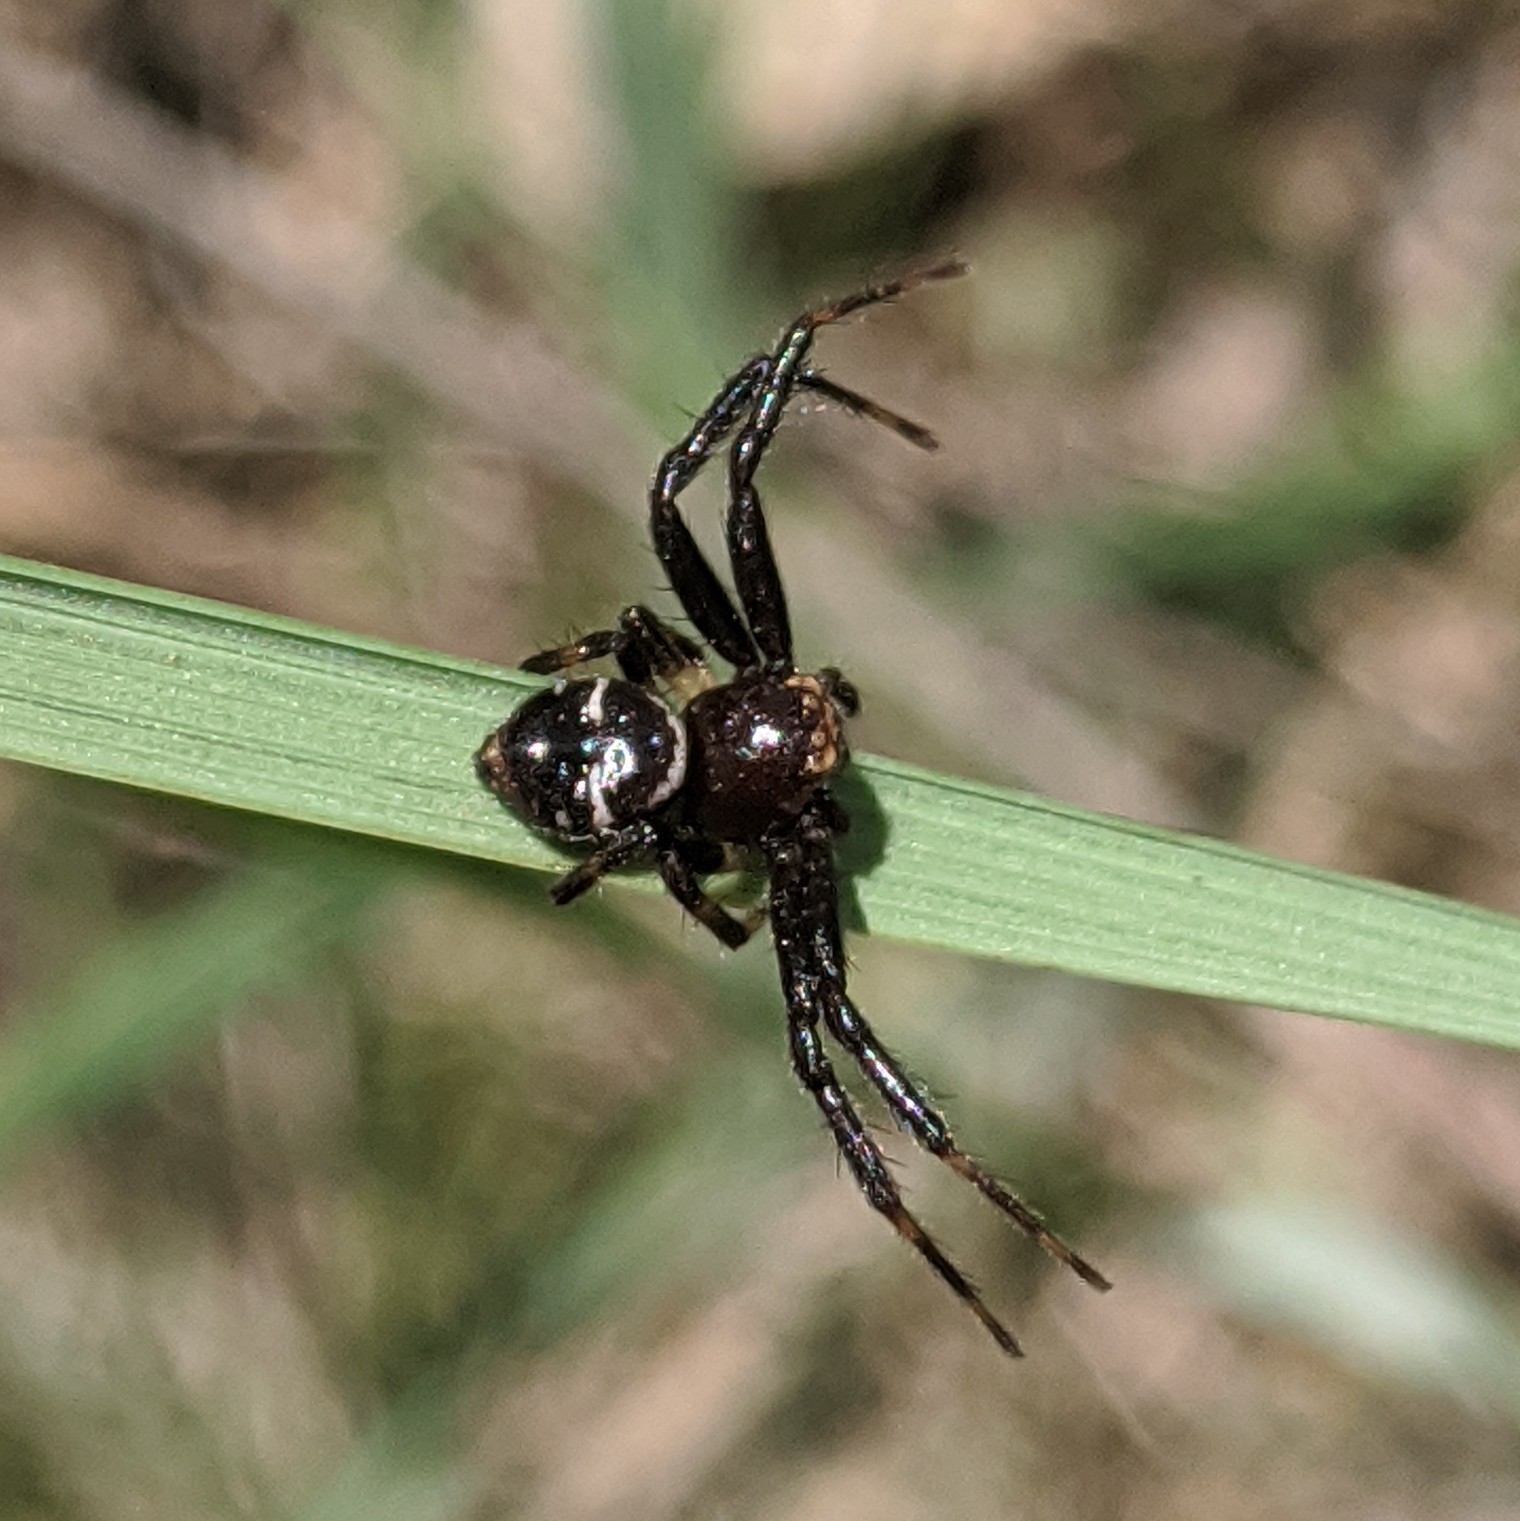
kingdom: Animalia
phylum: Arthropoda
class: Arachnida
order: Araneae
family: Thomisidae
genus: Synema
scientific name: Synema globosum
